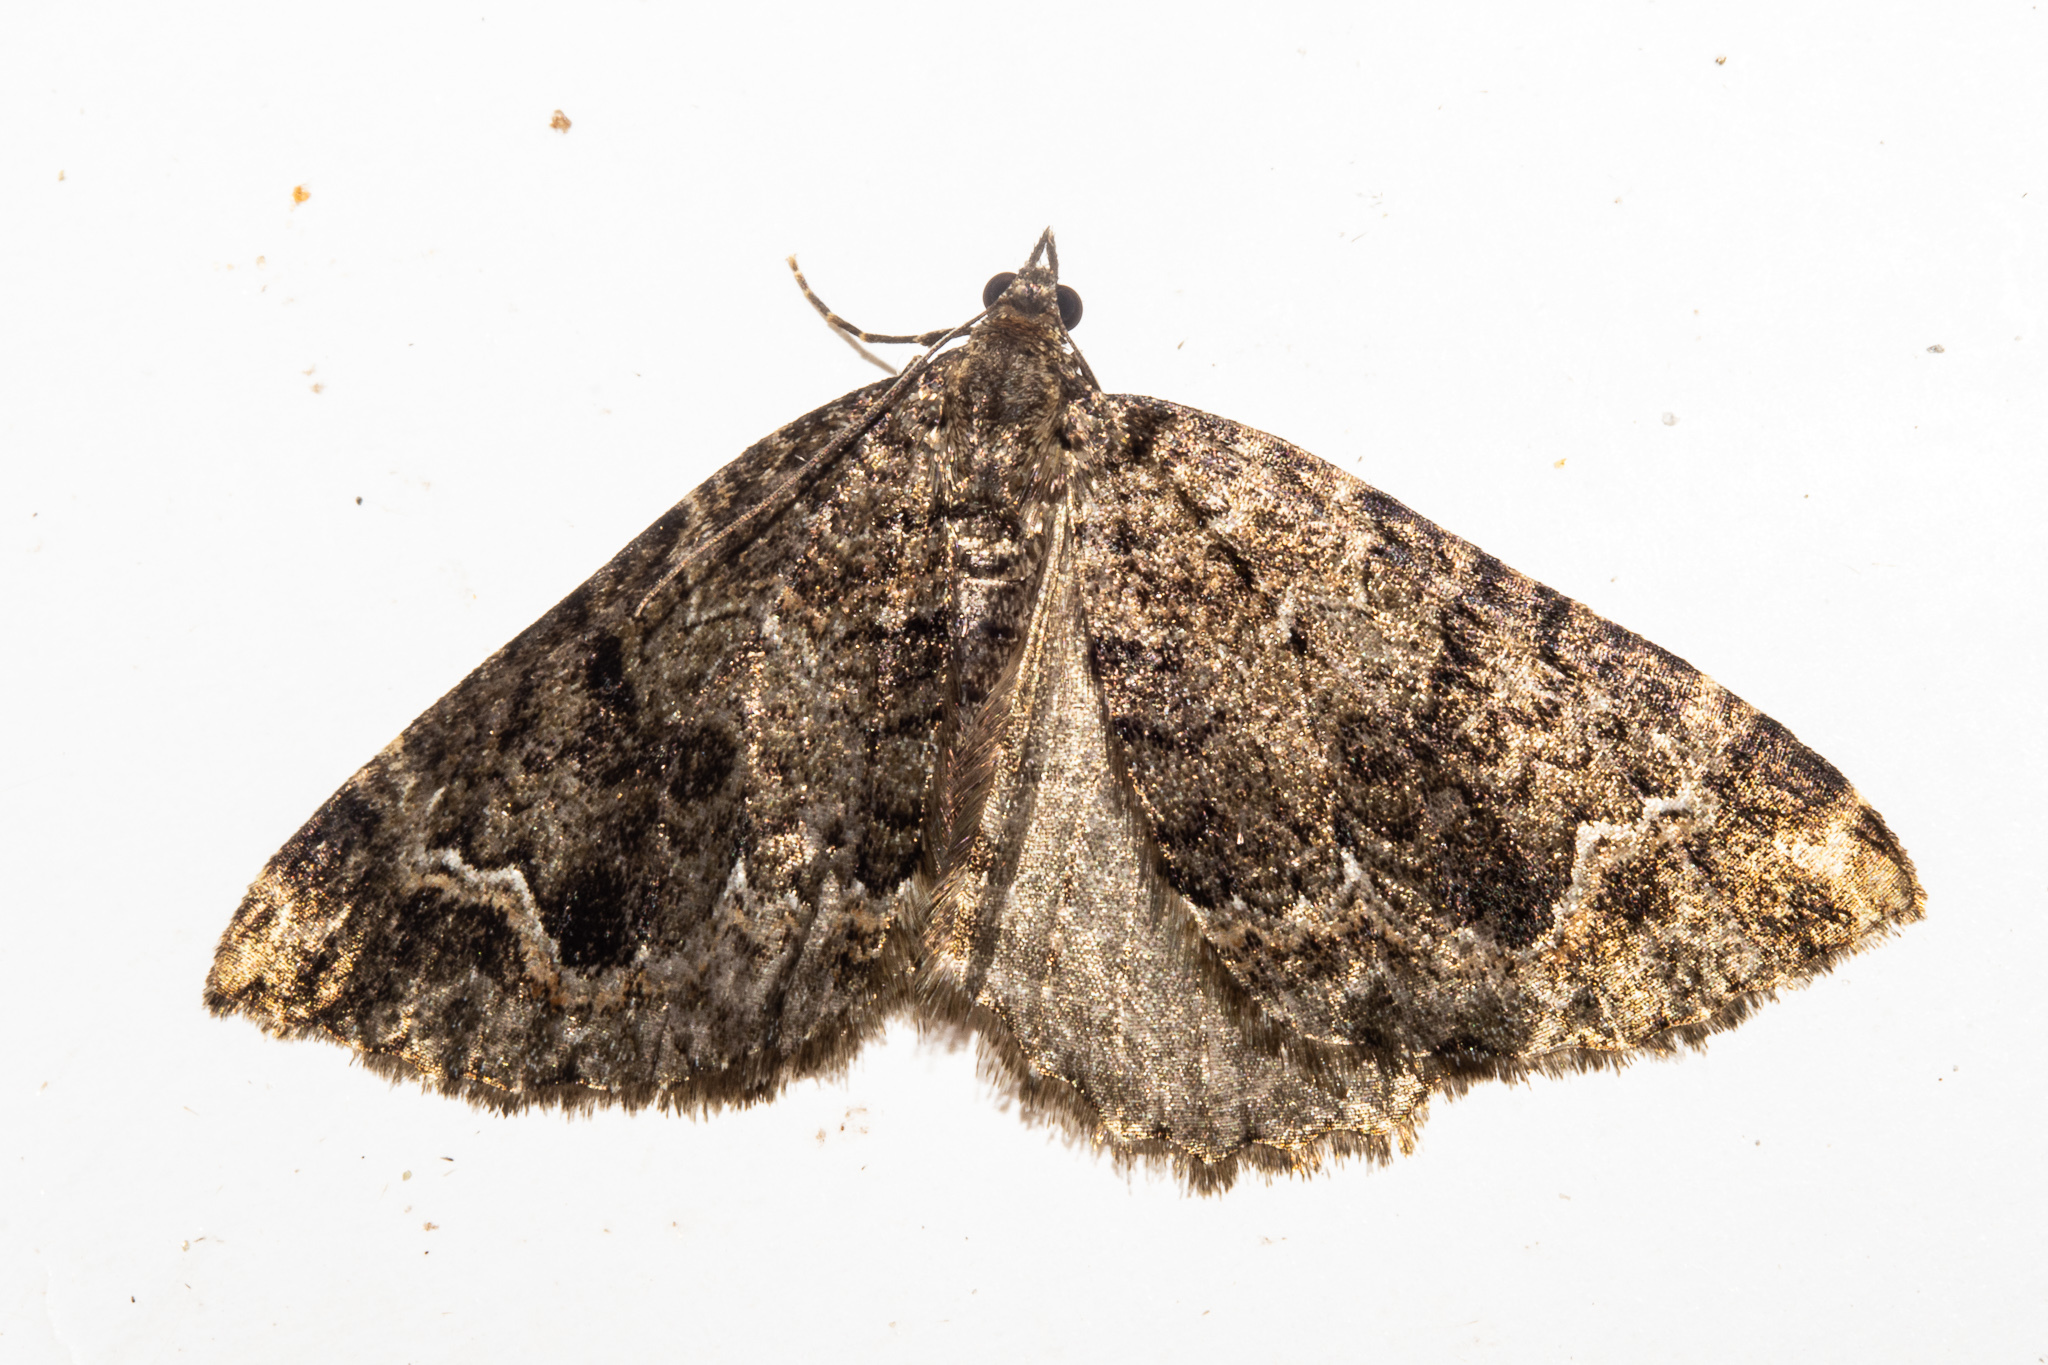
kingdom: Animalia
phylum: Arthropoda
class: Insecta
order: Lepidoptera
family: Geometridae
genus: Hydriomena
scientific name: Hydriomena hemizona
